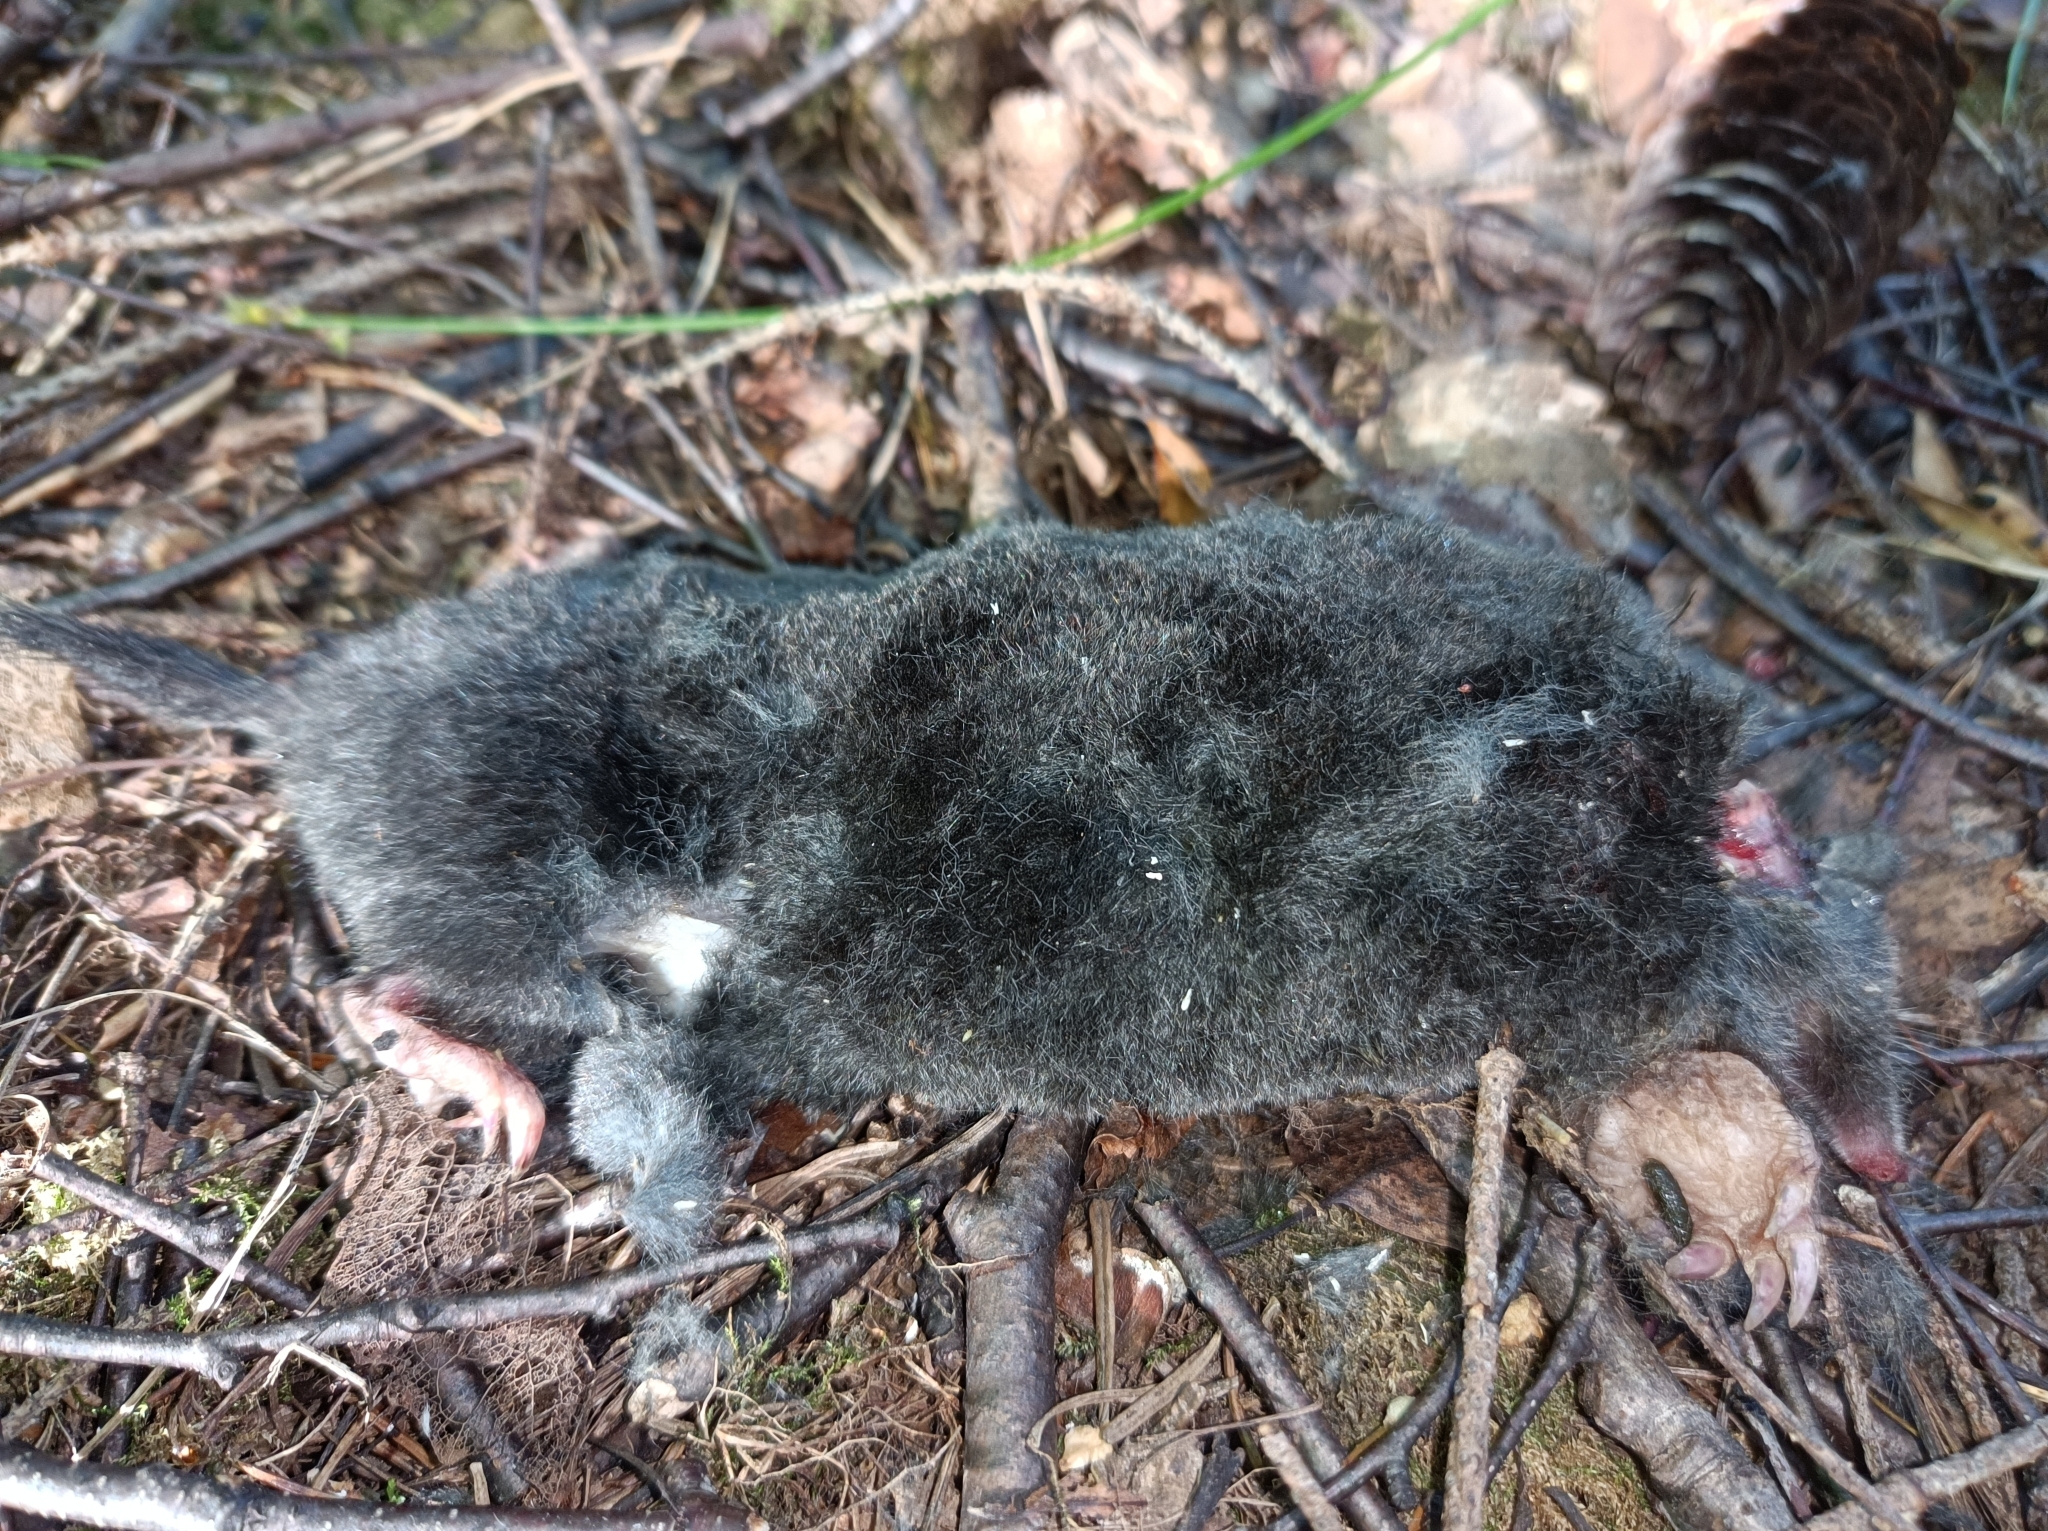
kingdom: Animalia
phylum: Chordata
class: Mammalia
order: Soricomorpha
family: Talpidae
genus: Talpa
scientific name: Talpa europaea
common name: European mole
